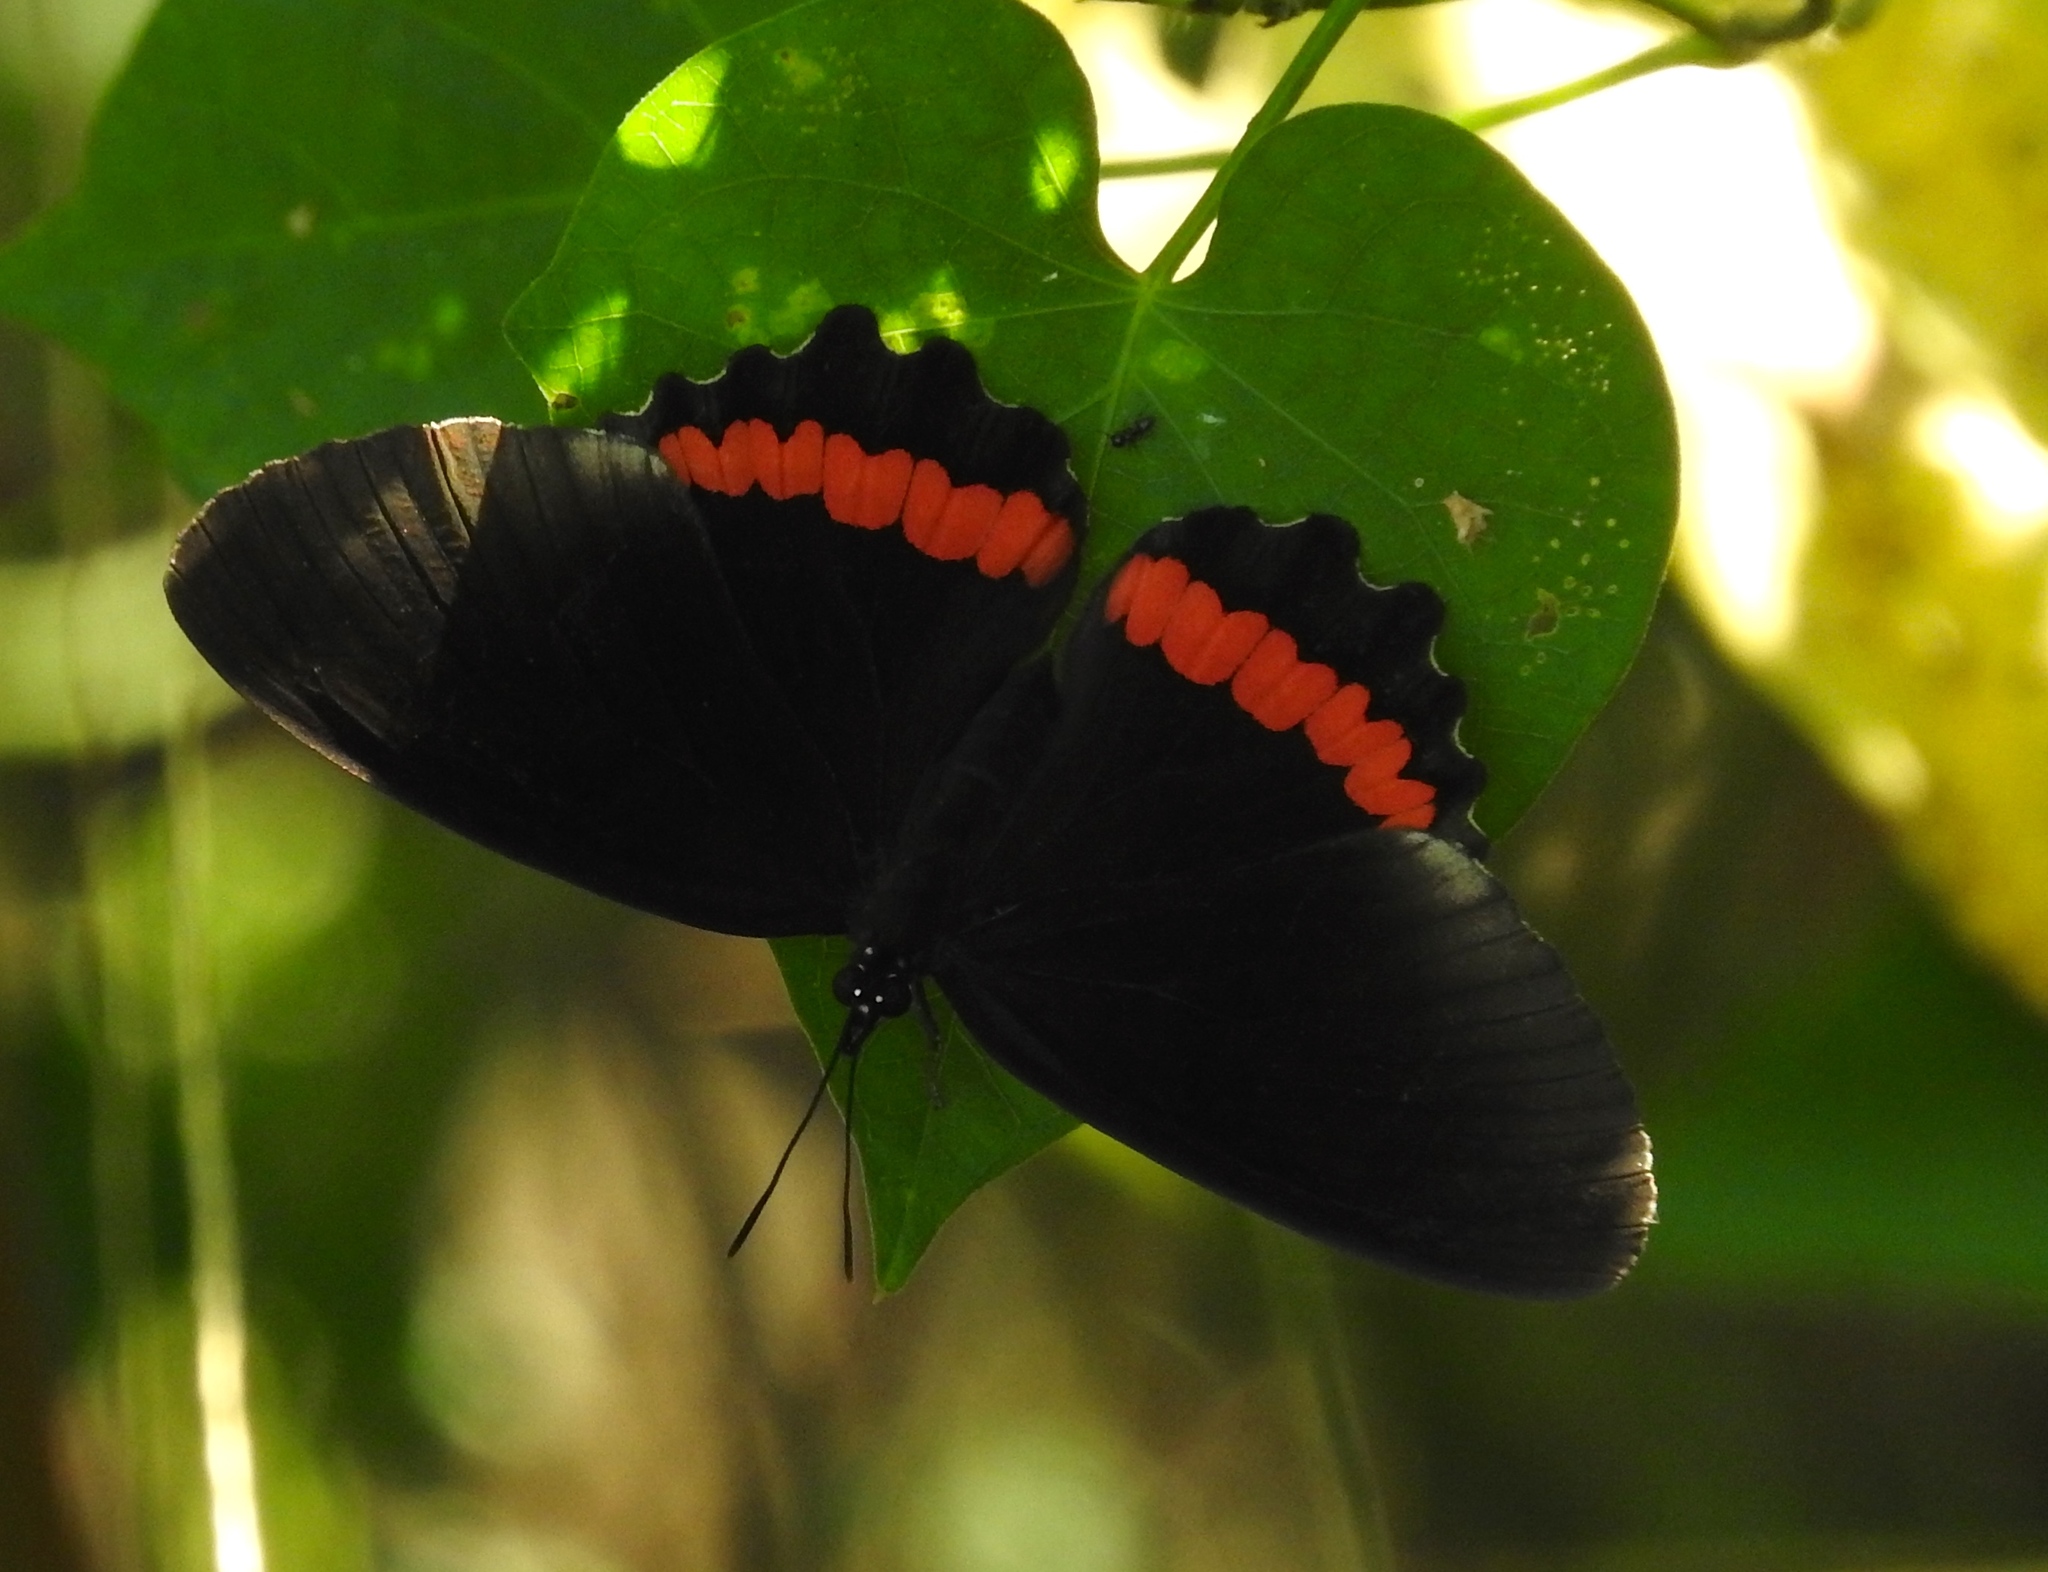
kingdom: Animalia
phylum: Arthropoda
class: Insecta
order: Lepidoptera
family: Nymphalidae
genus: Biblis
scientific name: Biblis aganisa
